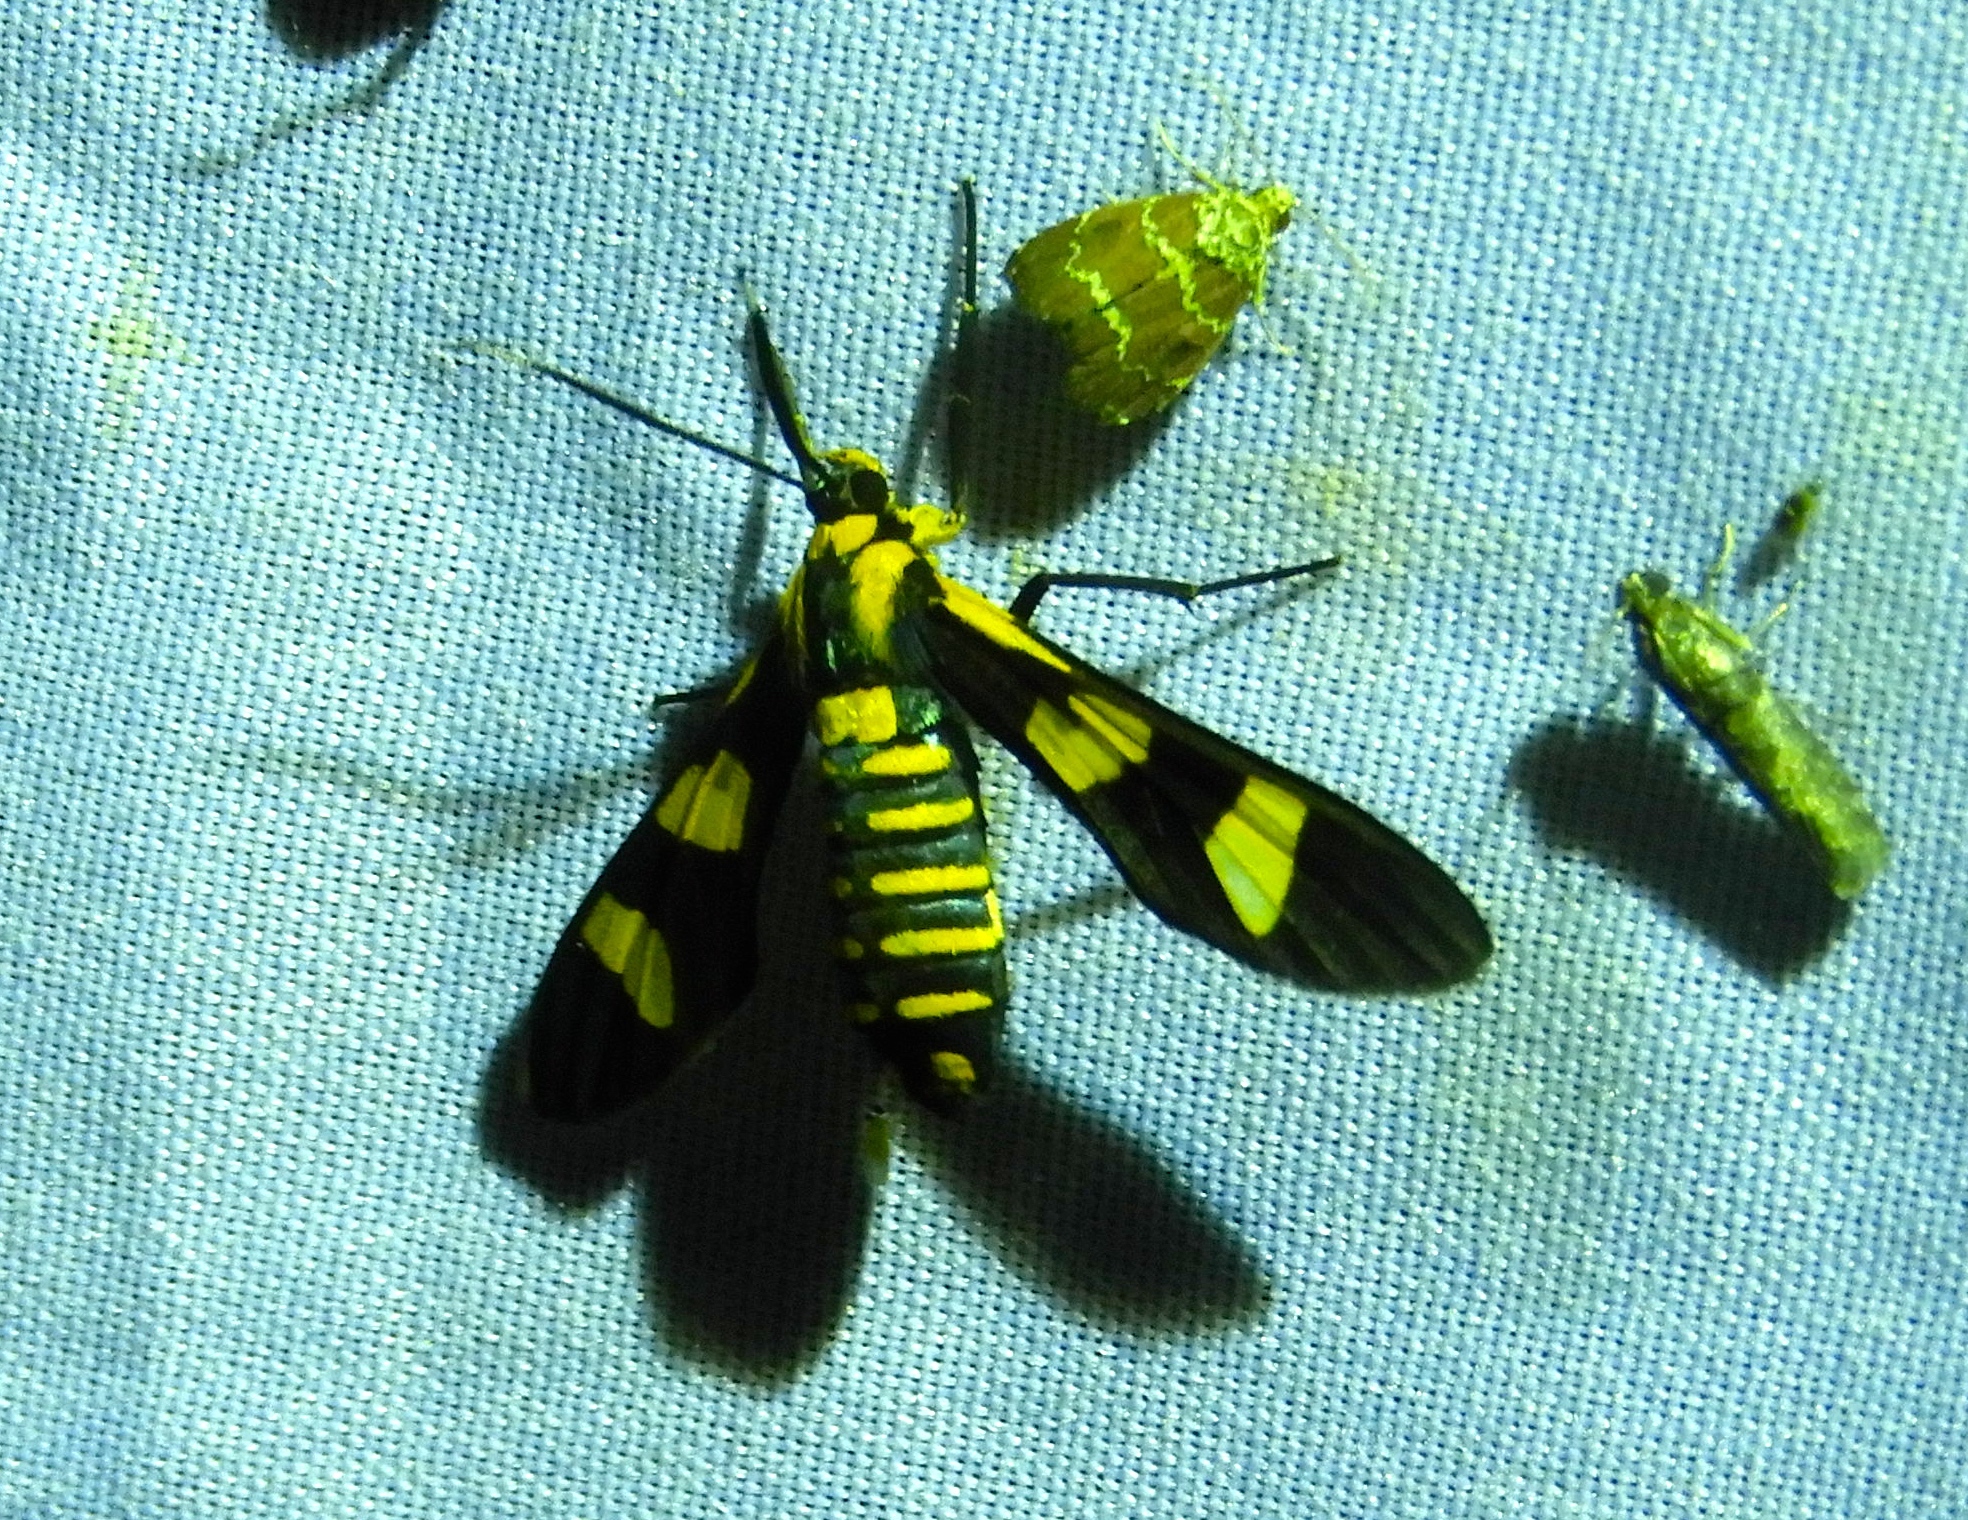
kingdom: Animalia
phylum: Arthropoda
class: Insecta
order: Lepidoptera
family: Erebidae
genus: Phoenicoprocta
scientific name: Phoenicoprocta hampsonii
